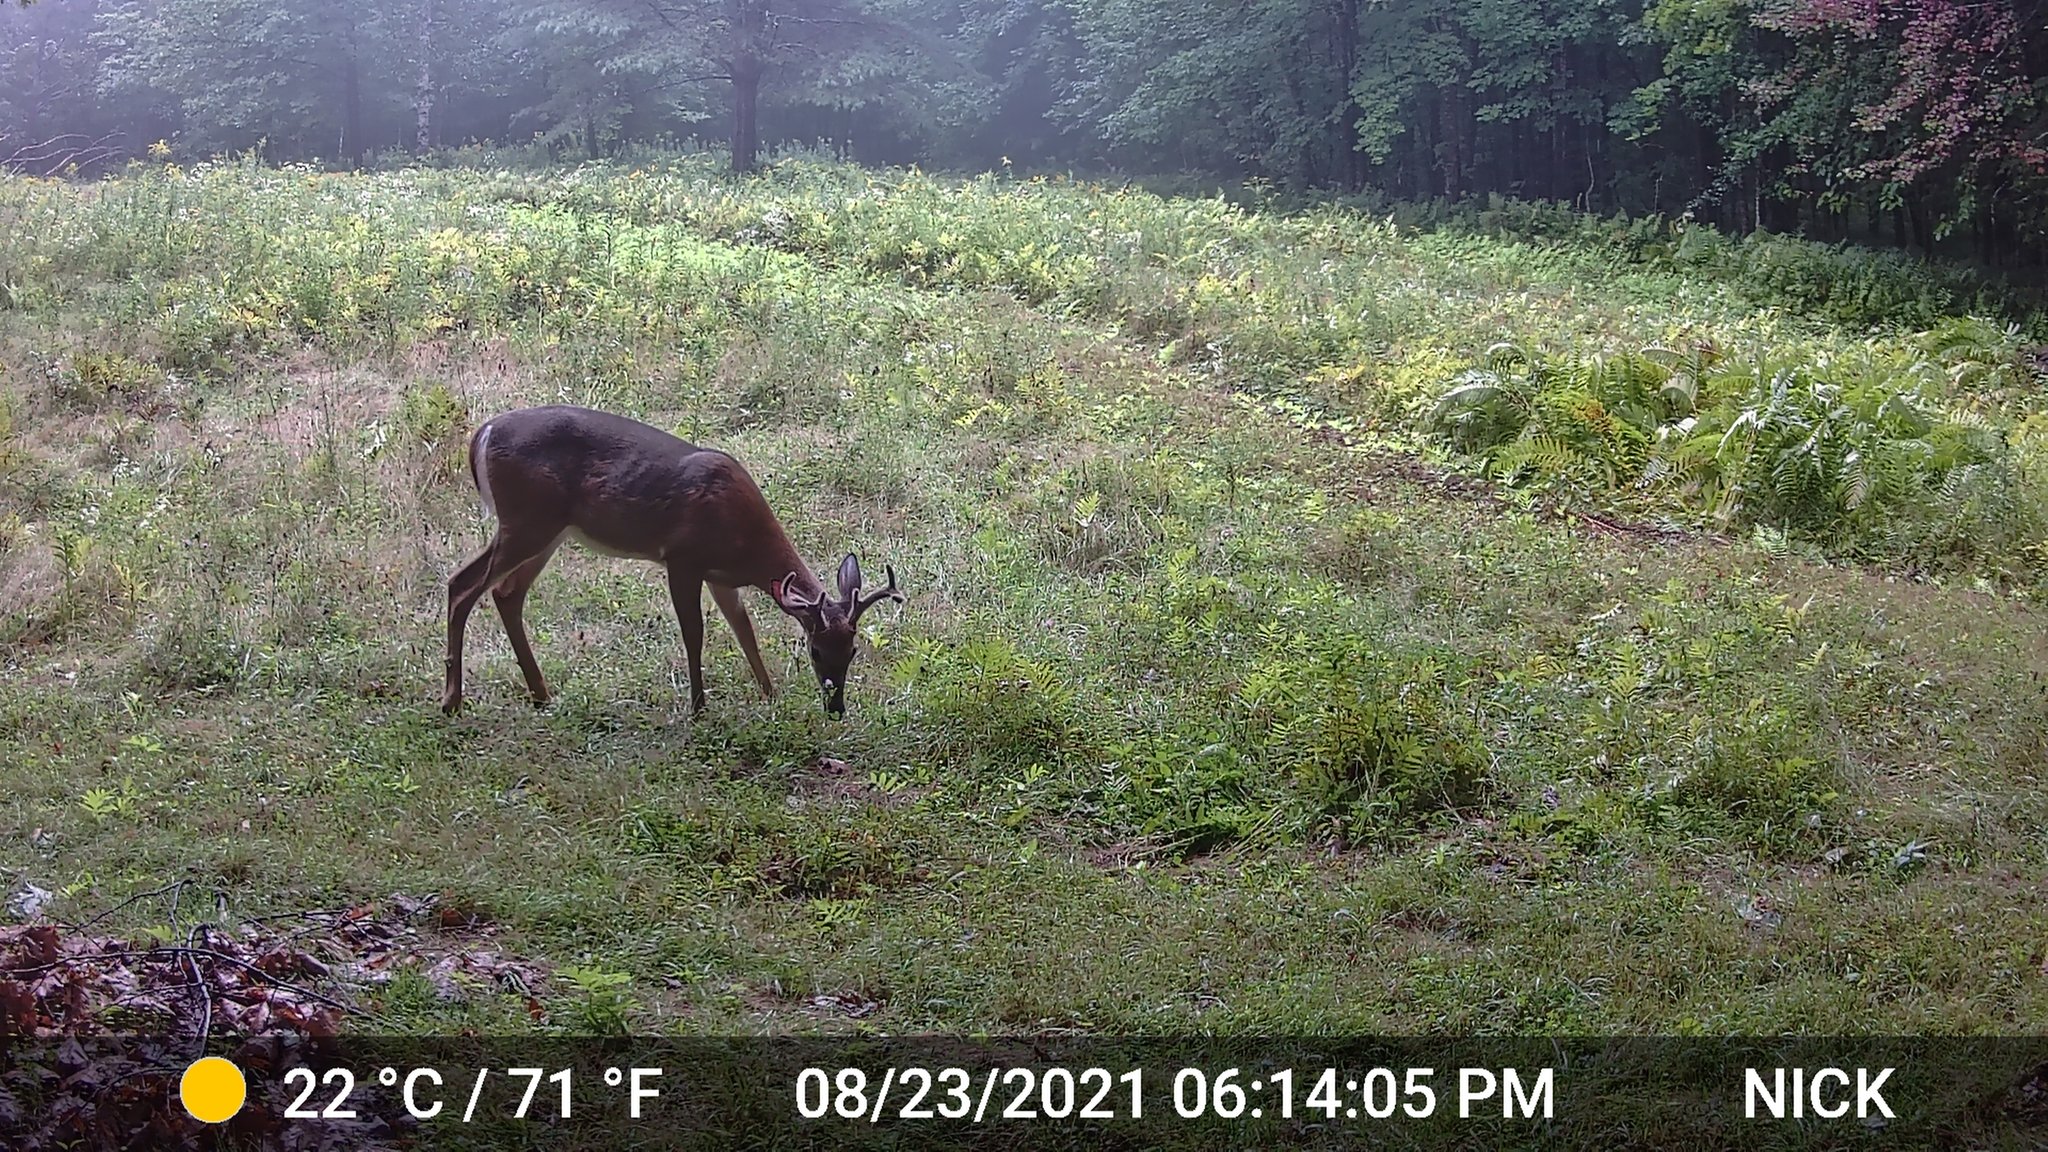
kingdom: Animalia
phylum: Chordata
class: Mammalia
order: Artiodactyla
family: Cervidae
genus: Odocoileus
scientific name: Odocoileus virginianus
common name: White-tailed deer
